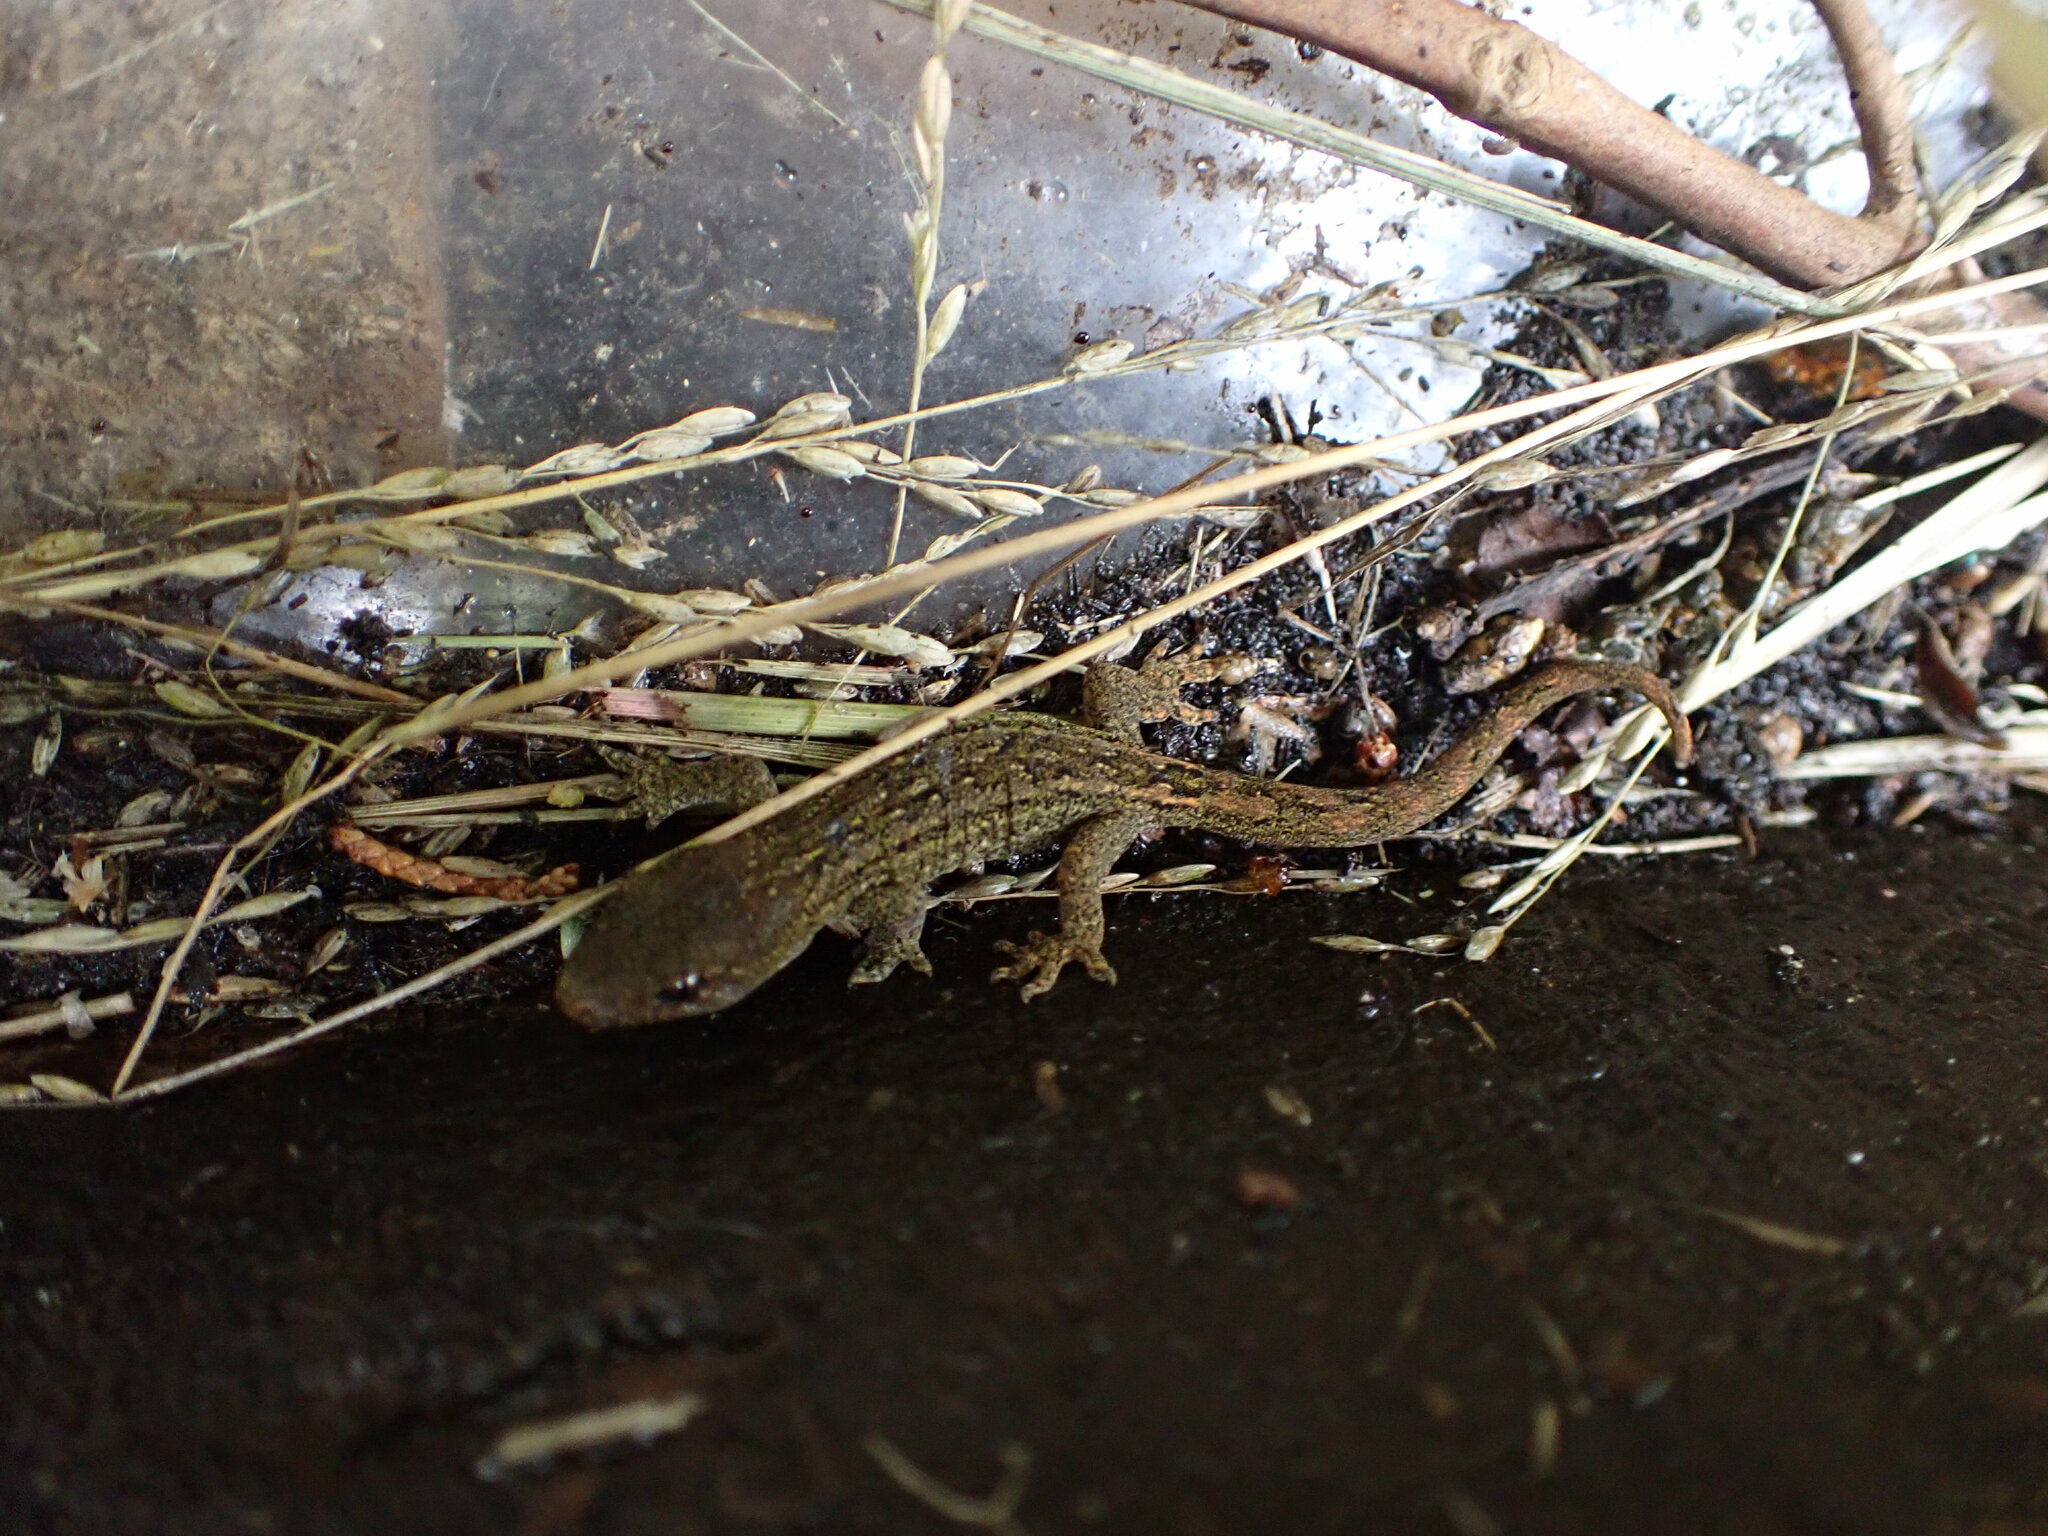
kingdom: Animalia
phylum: Chordata
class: Squamata
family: Diplodactylidae
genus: Woodworthia
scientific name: Woodworthia maculata
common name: Raukawa gecko
